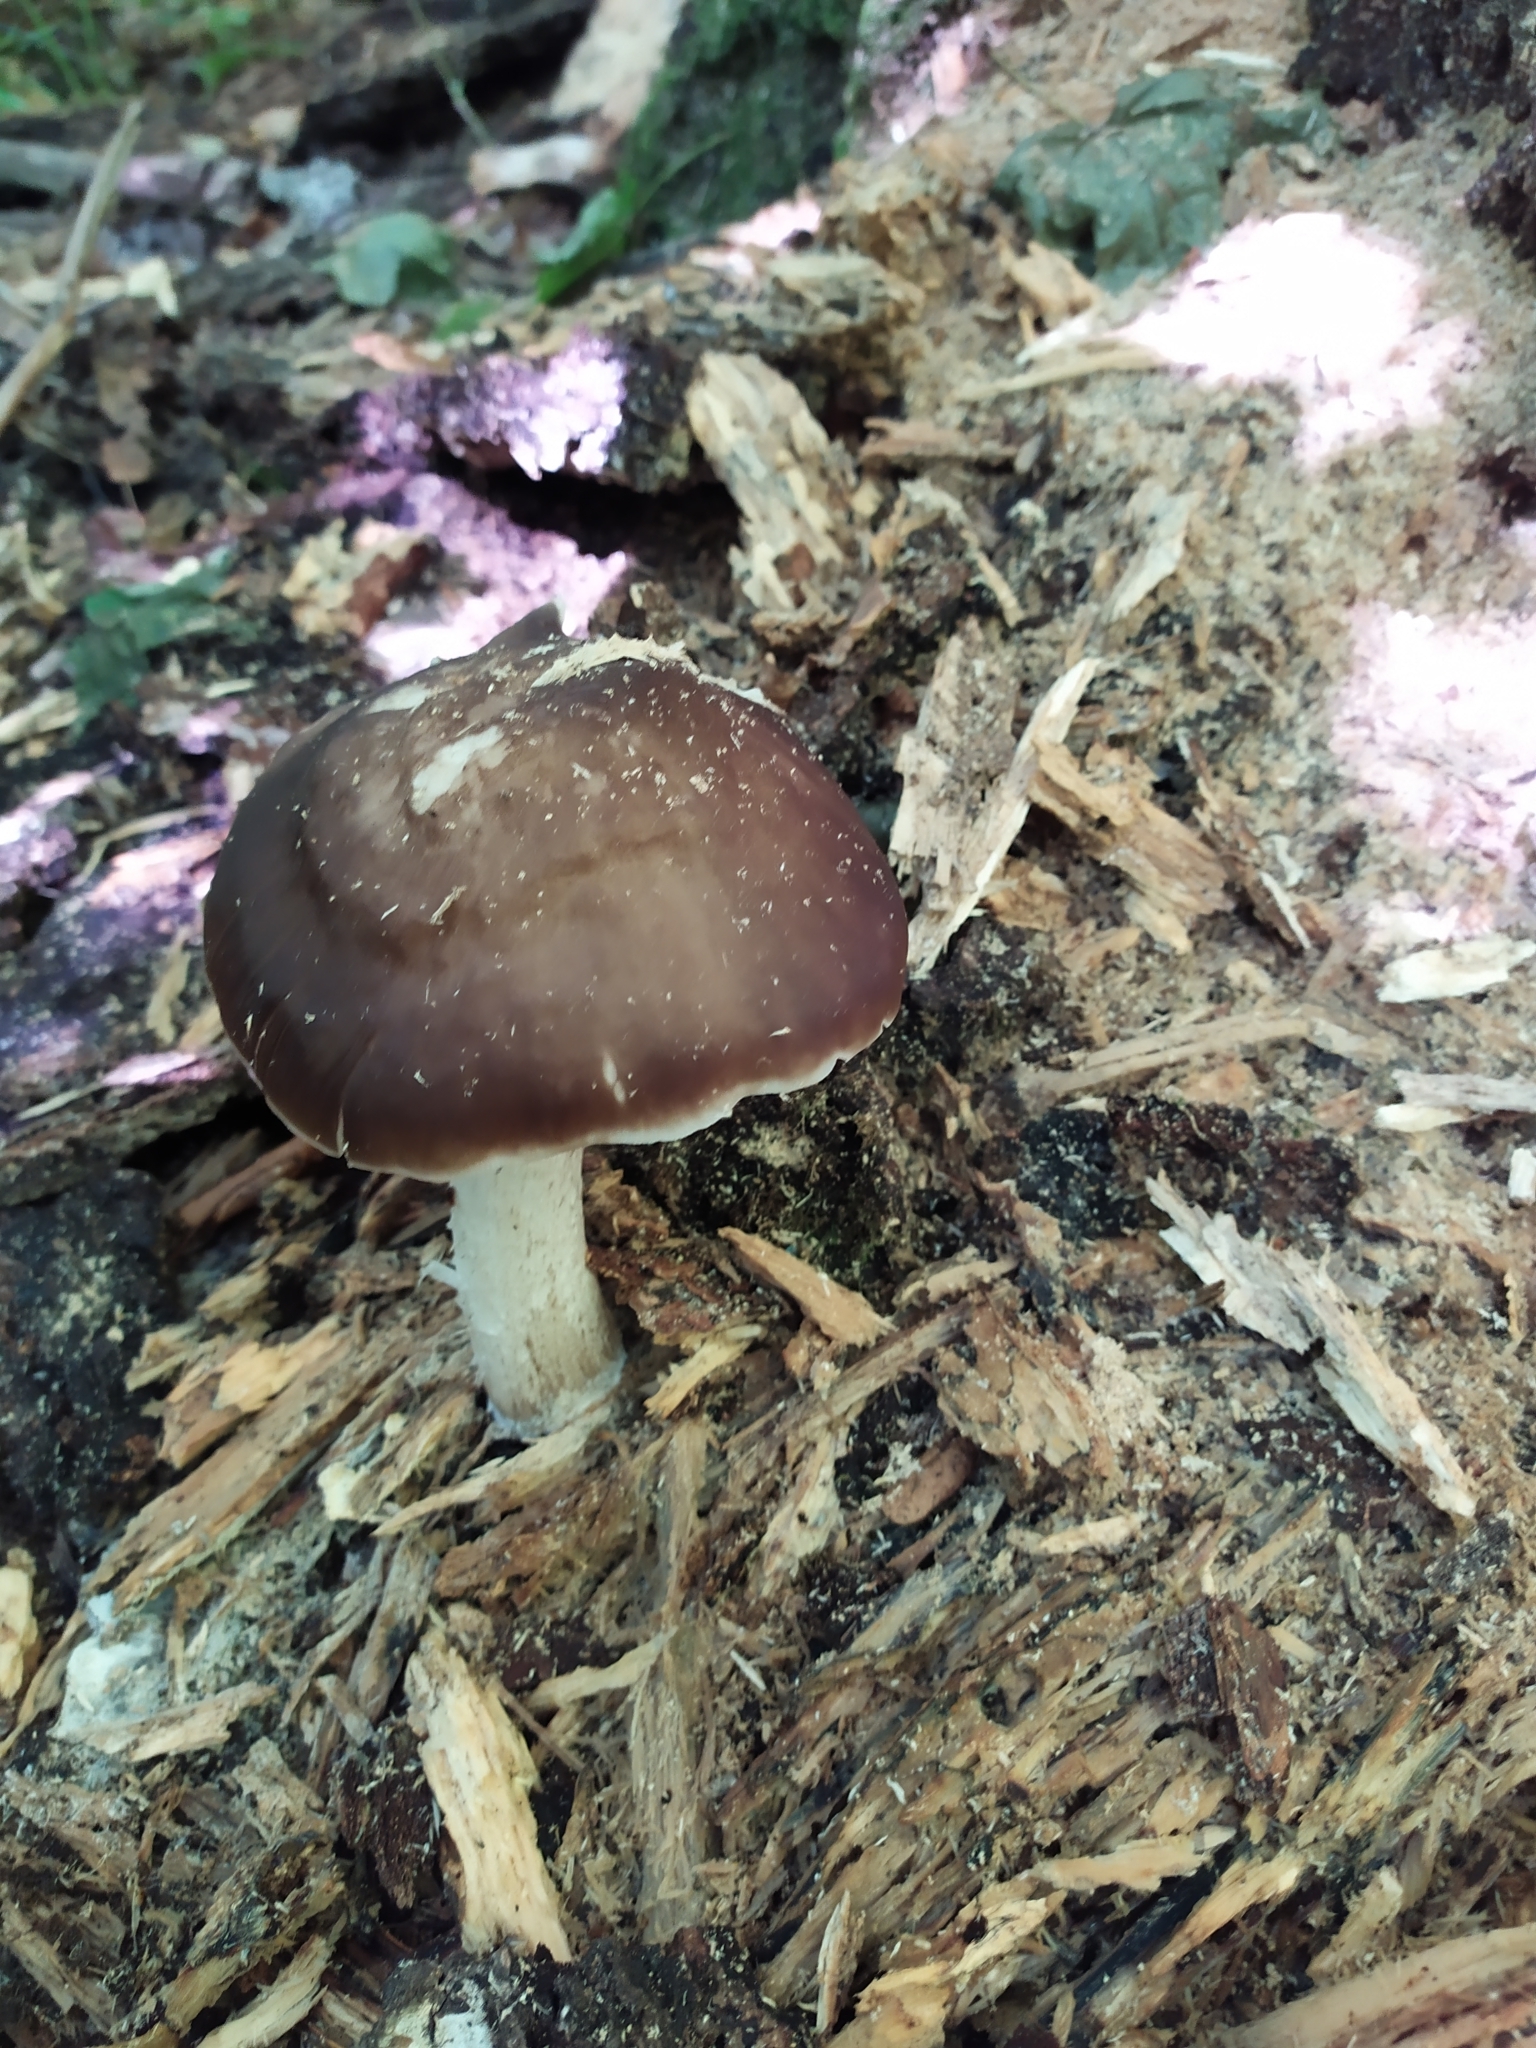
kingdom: Fungi
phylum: Basidiomycota
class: Agaricomycetes
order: Agaricales
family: Pluteaceae
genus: Pluteus
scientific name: Pluteus
